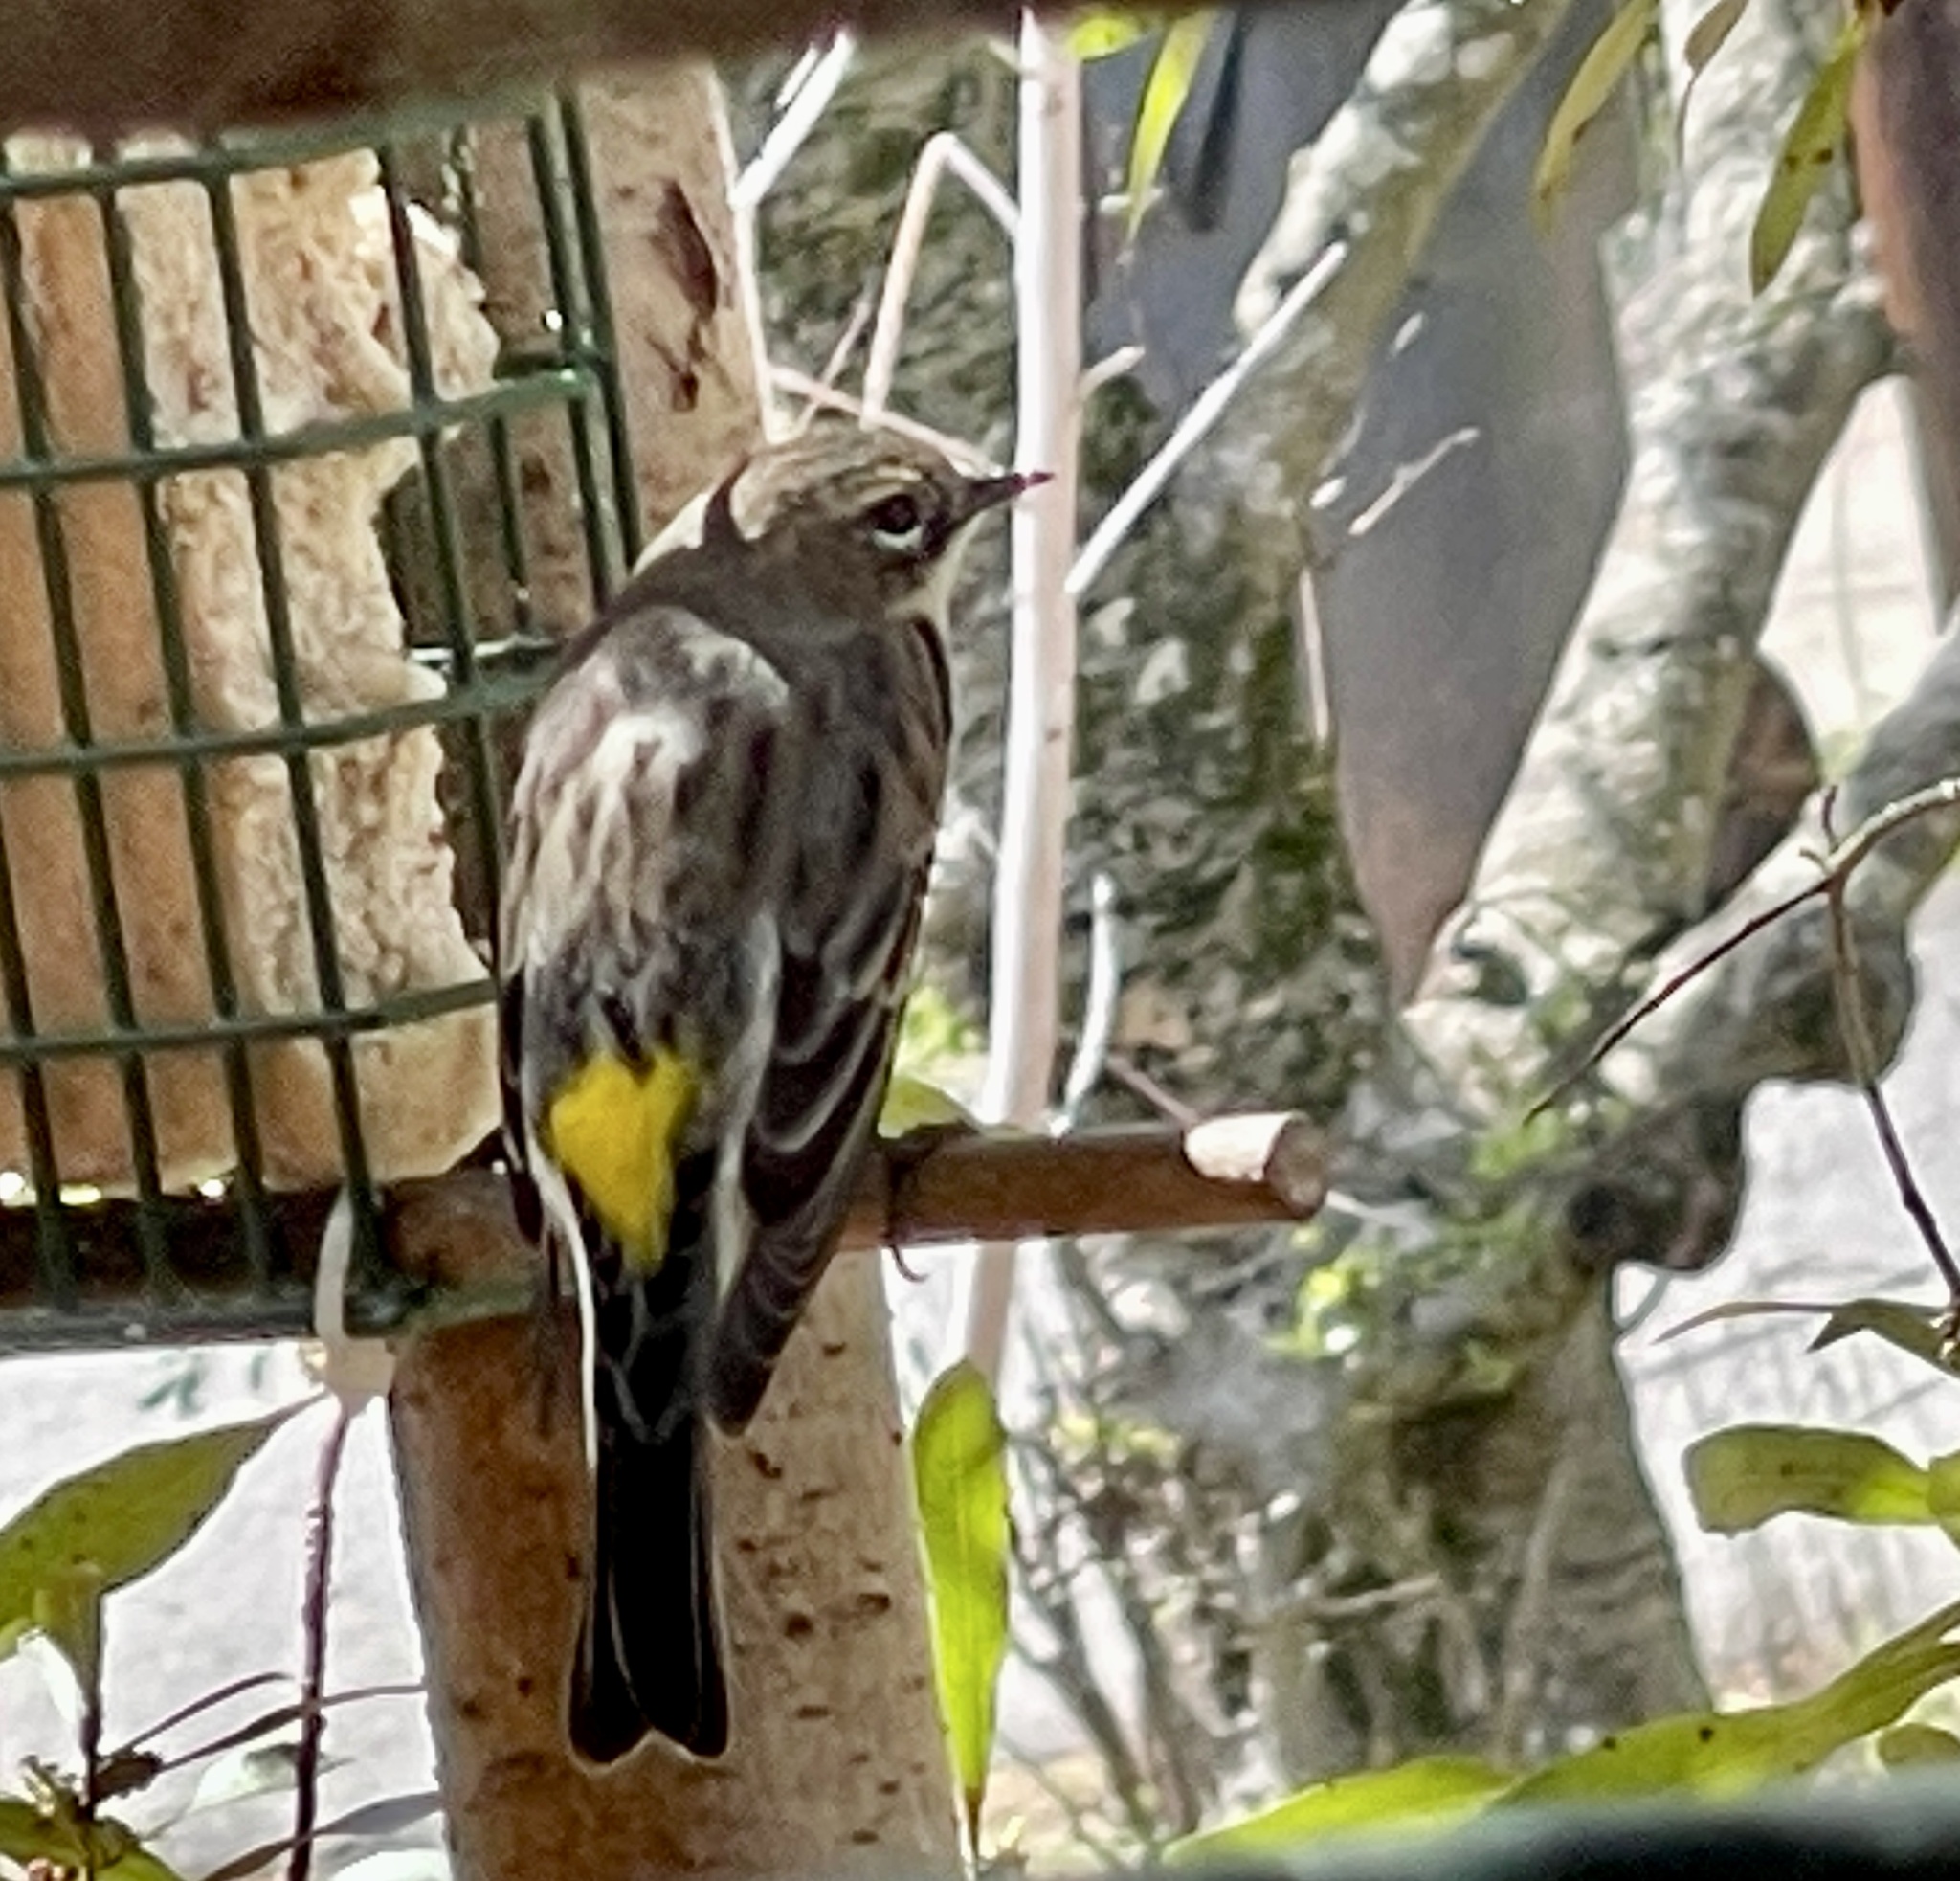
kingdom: Animalia
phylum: Chordata
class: Aves
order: Passeriformes
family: Parulidae
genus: Setophaga
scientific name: Setophaga coronata
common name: Myrtle warbler
